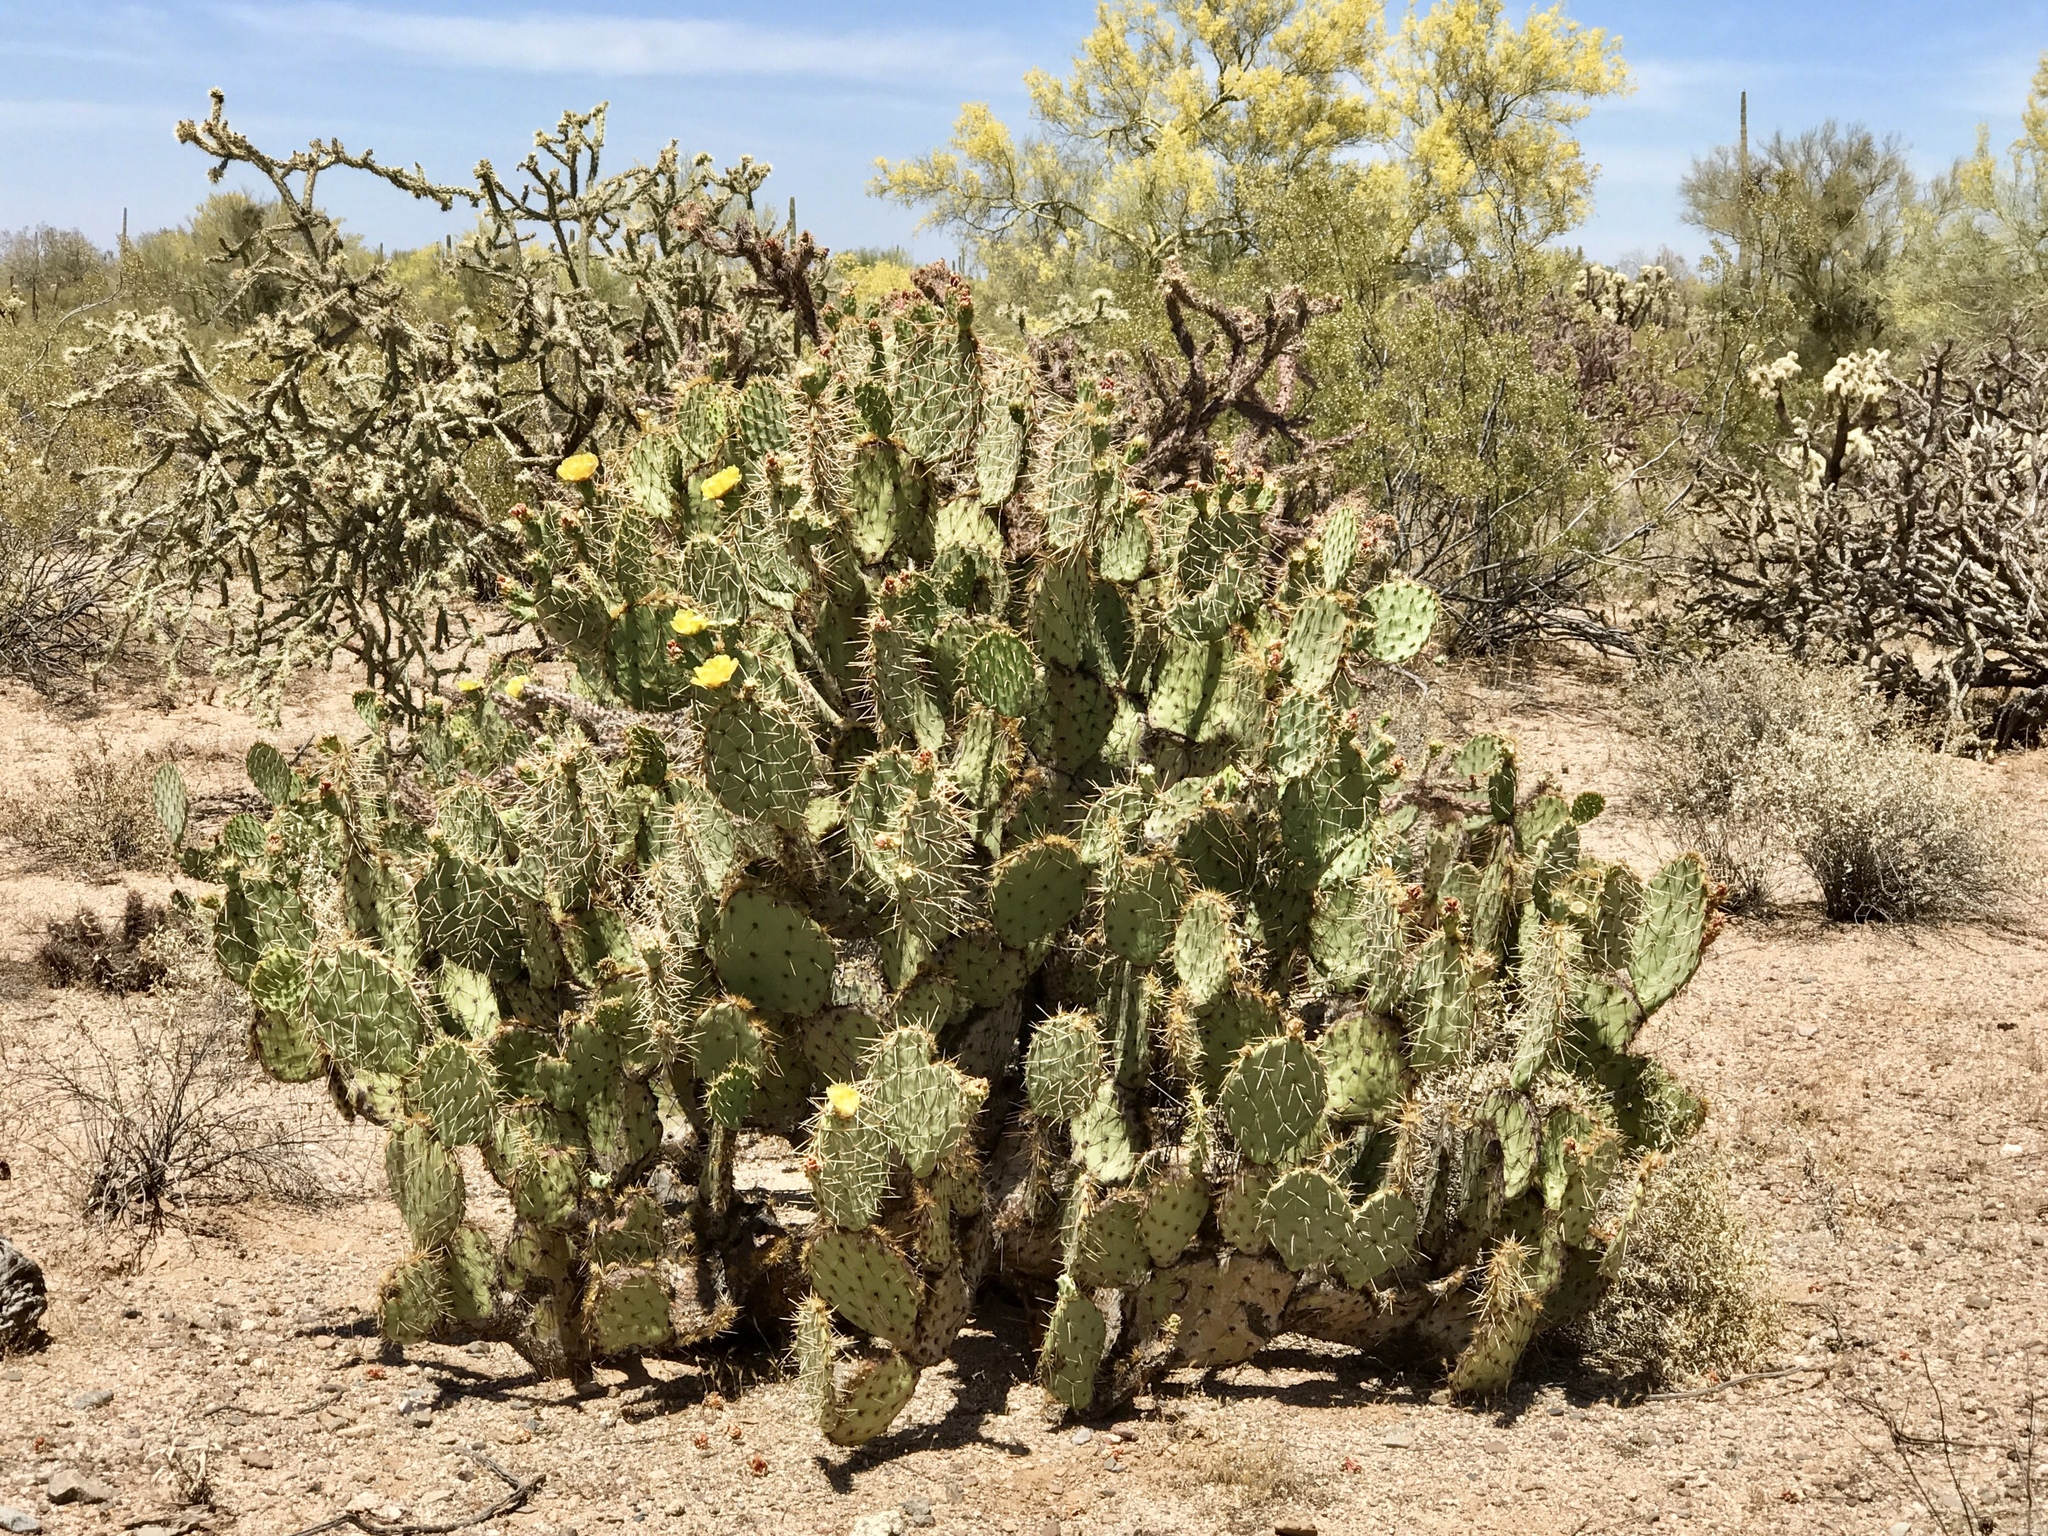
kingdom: Plantae
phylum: Tracheophyta
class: Magnoliopsida
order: Caryophyllales
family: Cactaceae
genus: Opuntia
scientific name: Opuntia engelmannii
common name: Cactus-apple
